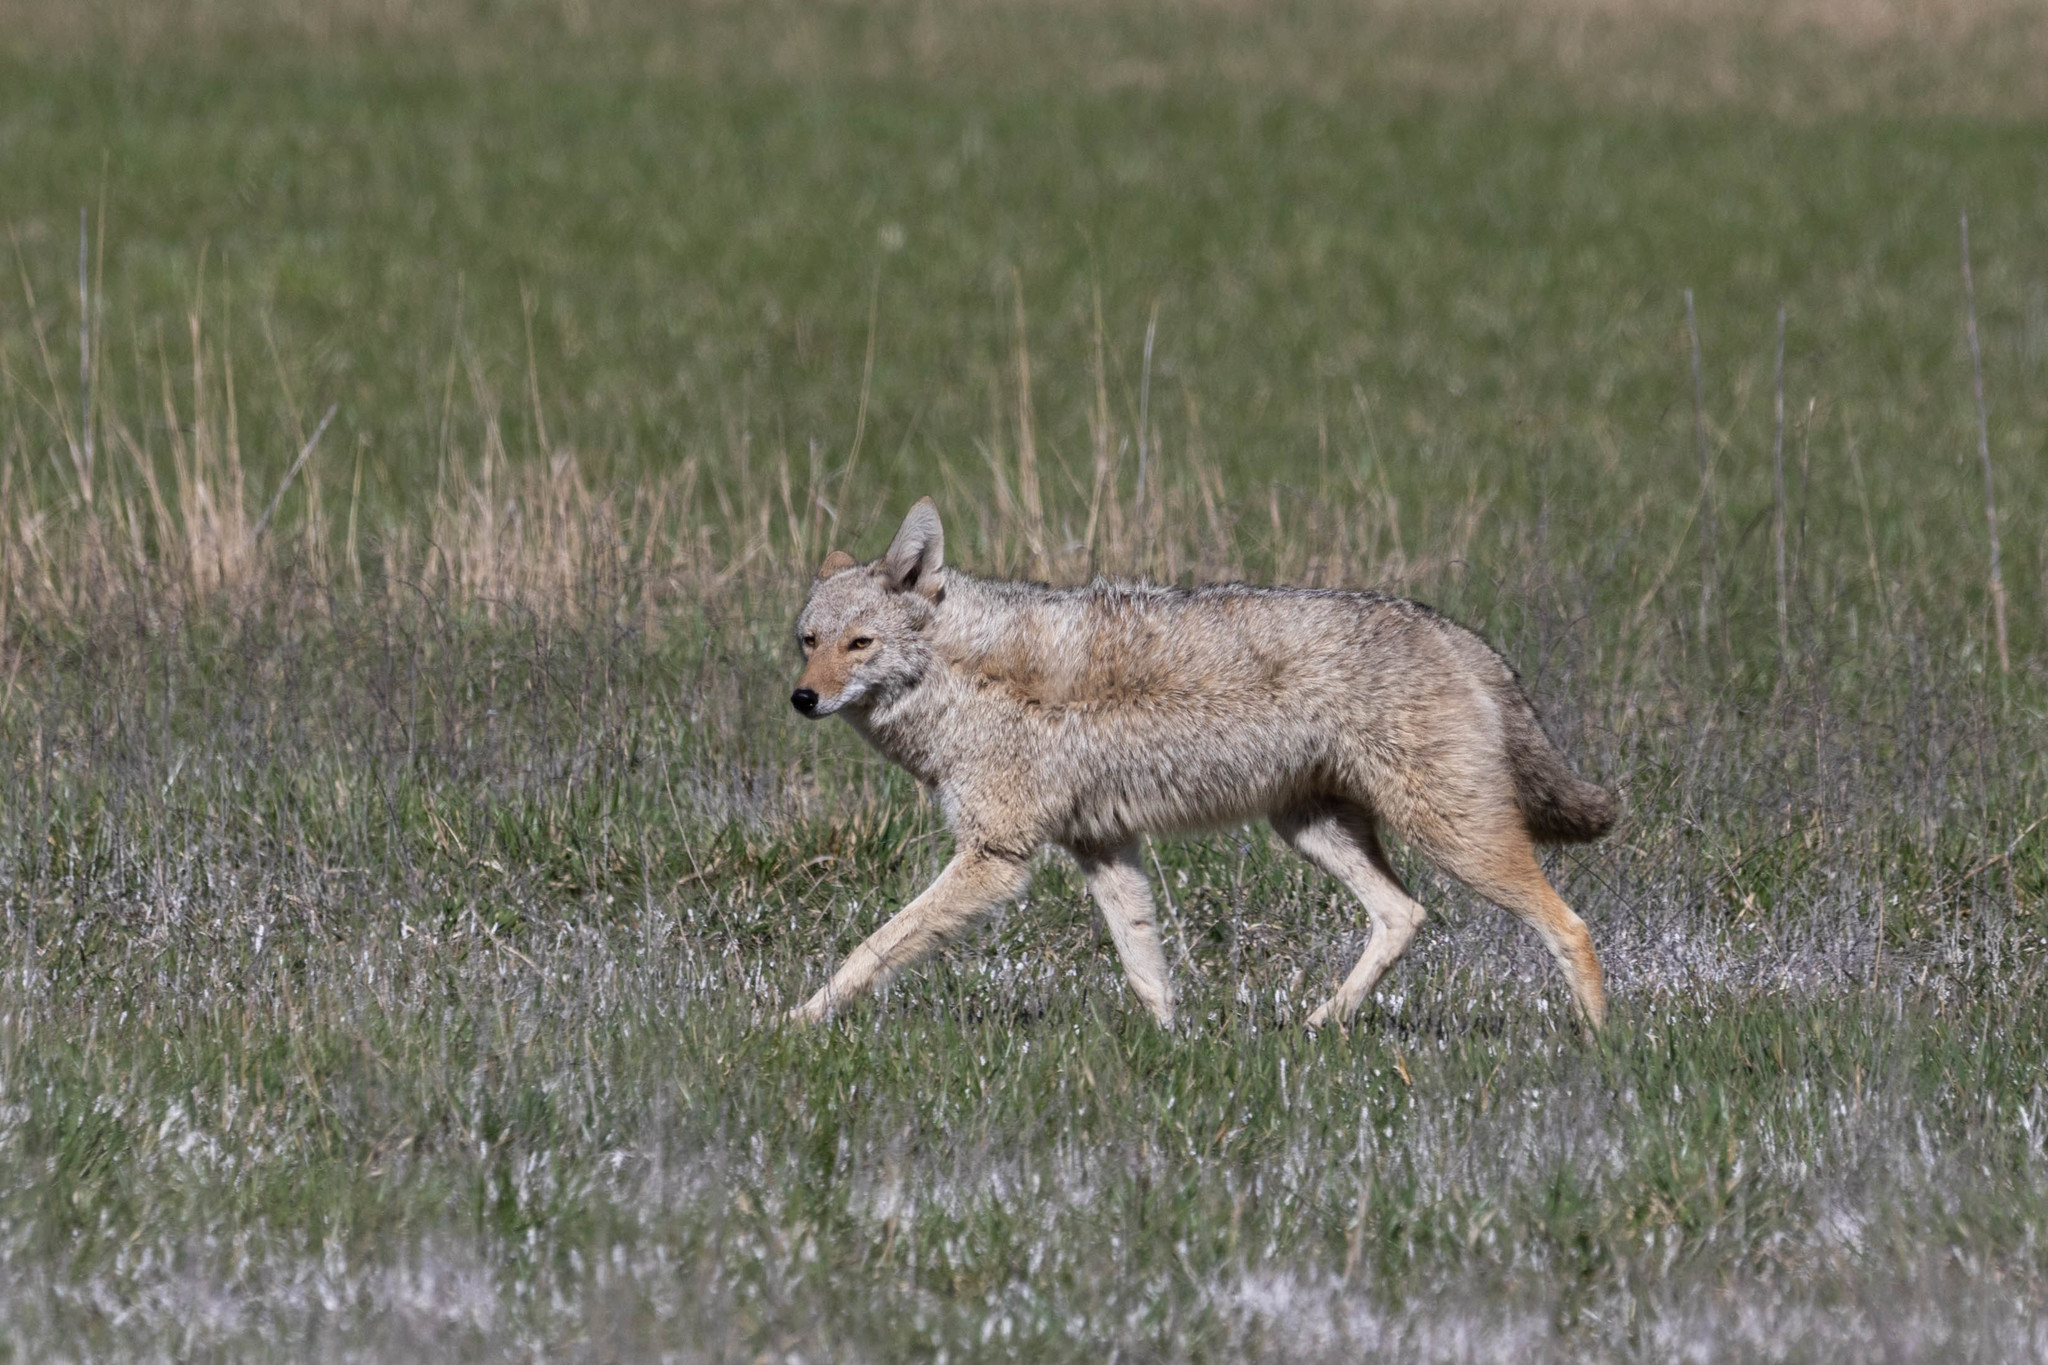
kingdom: Animalia
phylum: Chordata
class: Mammalia
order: Carnivora
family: Canidae
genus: Canis
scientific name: Canis latrans
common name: Coyote
